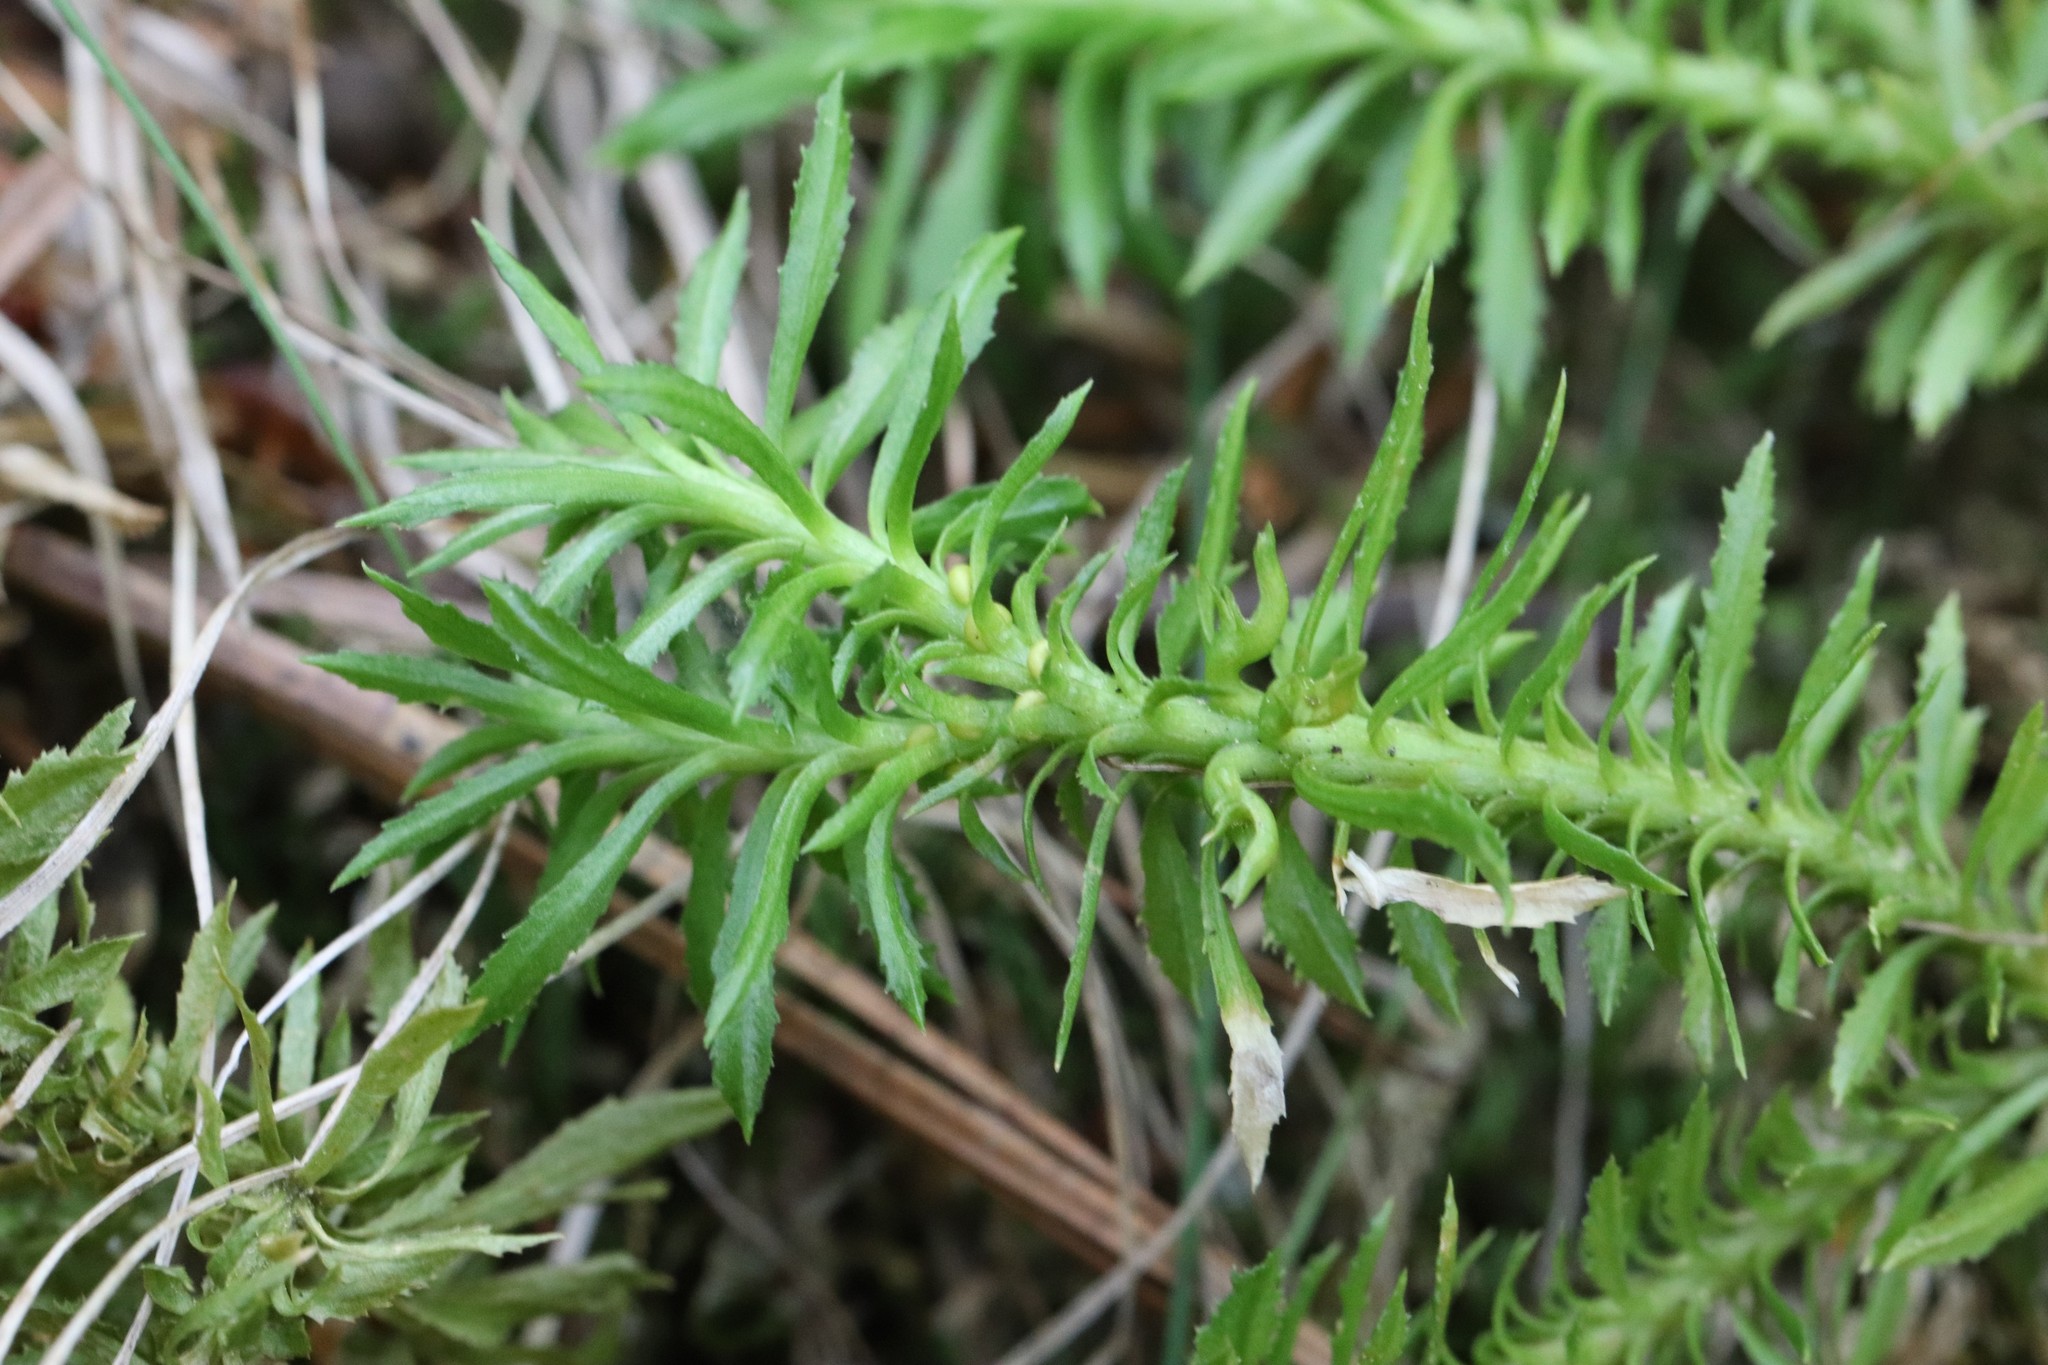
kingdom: Plantae
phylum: Tracheophyta
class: Lycopodiopsida
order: Lycopodiales
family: Lycopodiaceae
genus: Huperzia
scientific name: Huperzia serrata
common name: Toothed club-moss
